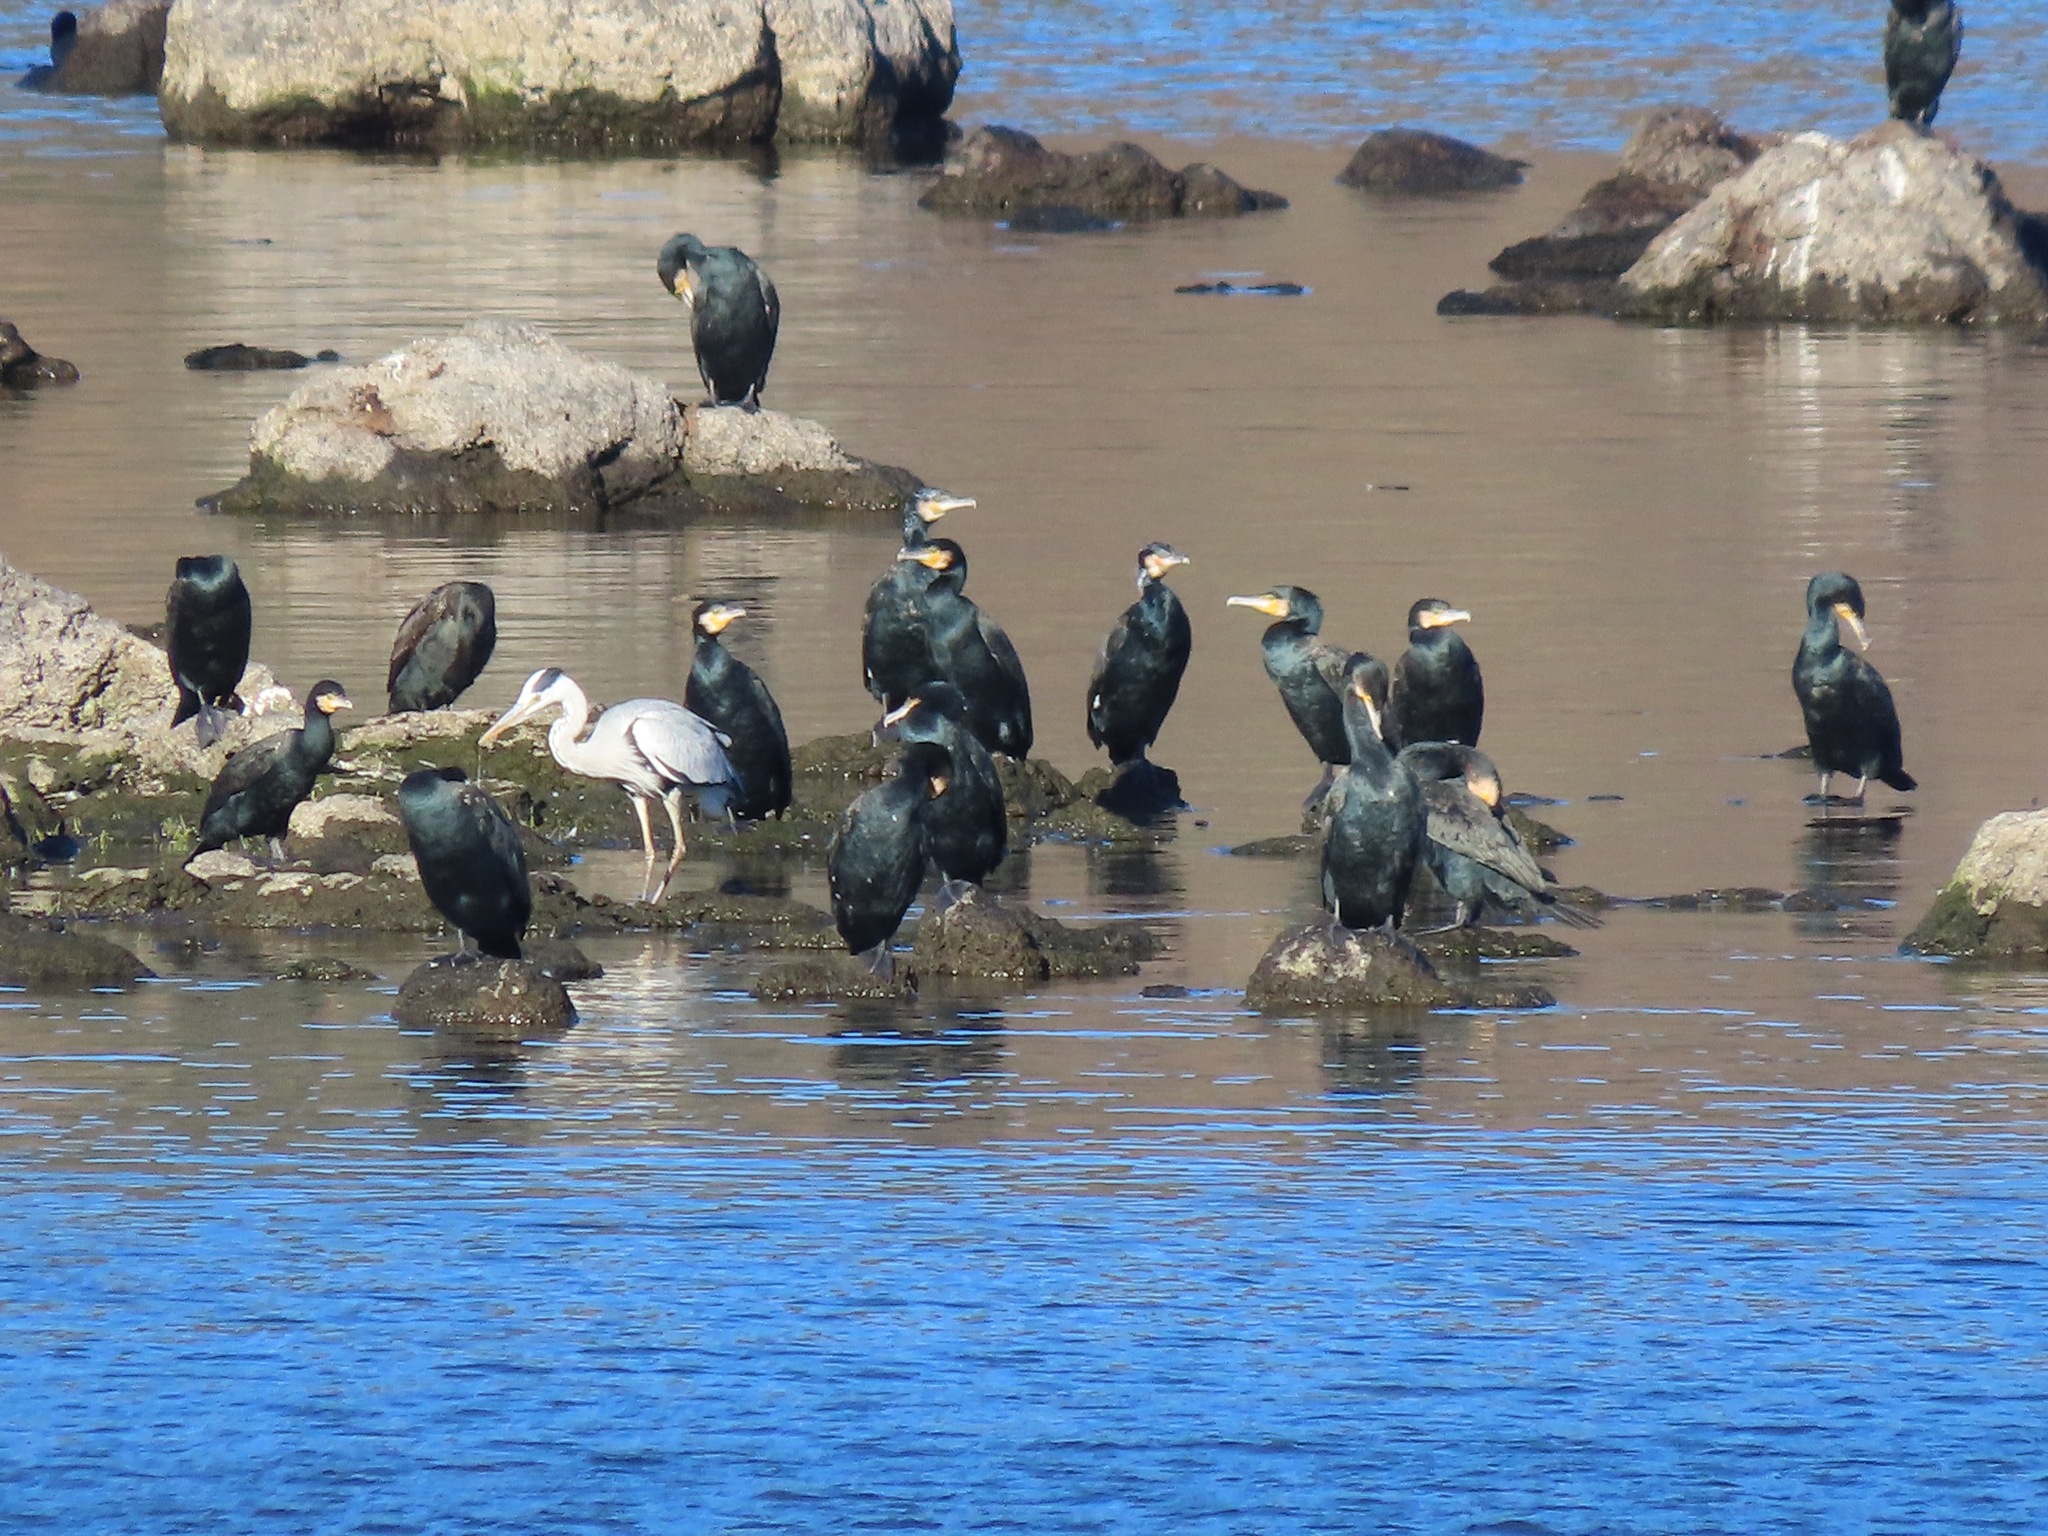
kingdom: Animalia
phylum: Chordata
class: Aves
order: Suliformes
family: Phalacrocoracidae
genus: Phalacrocorax
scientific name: Phalacrocorax carbo
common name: Great cormorant
